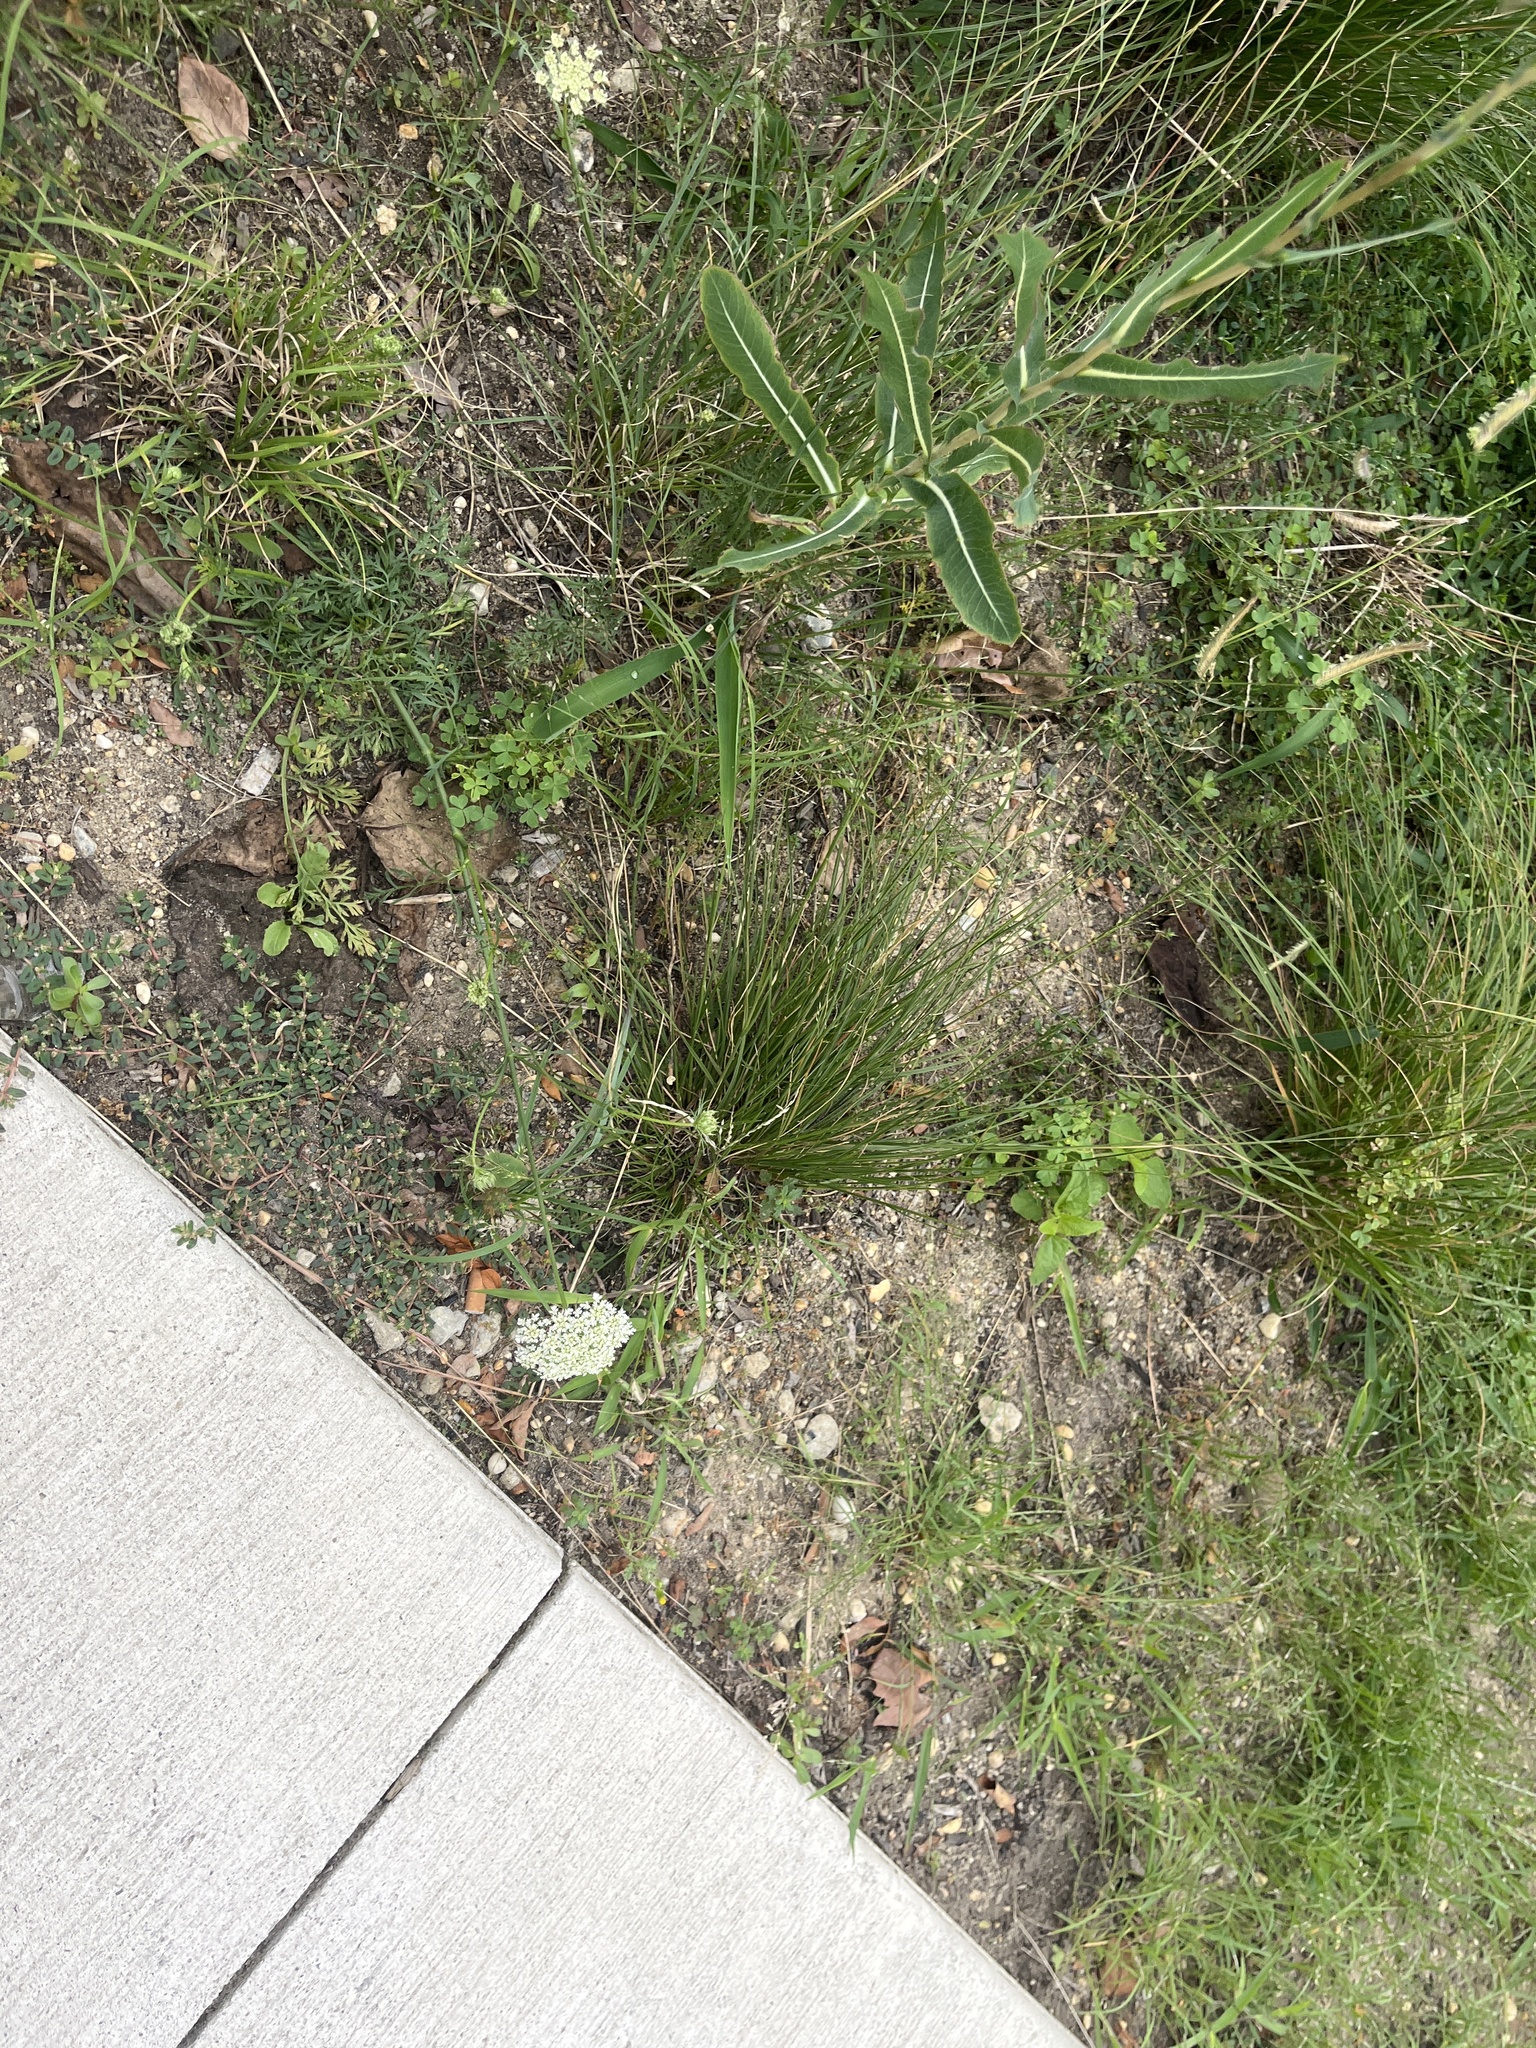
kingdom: Plantae
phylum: Tracheophyta
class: Magnoliopsida
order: Apiales
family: Apiaceae
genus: Daucus
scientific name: Daucus carota
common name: Wild carrot
